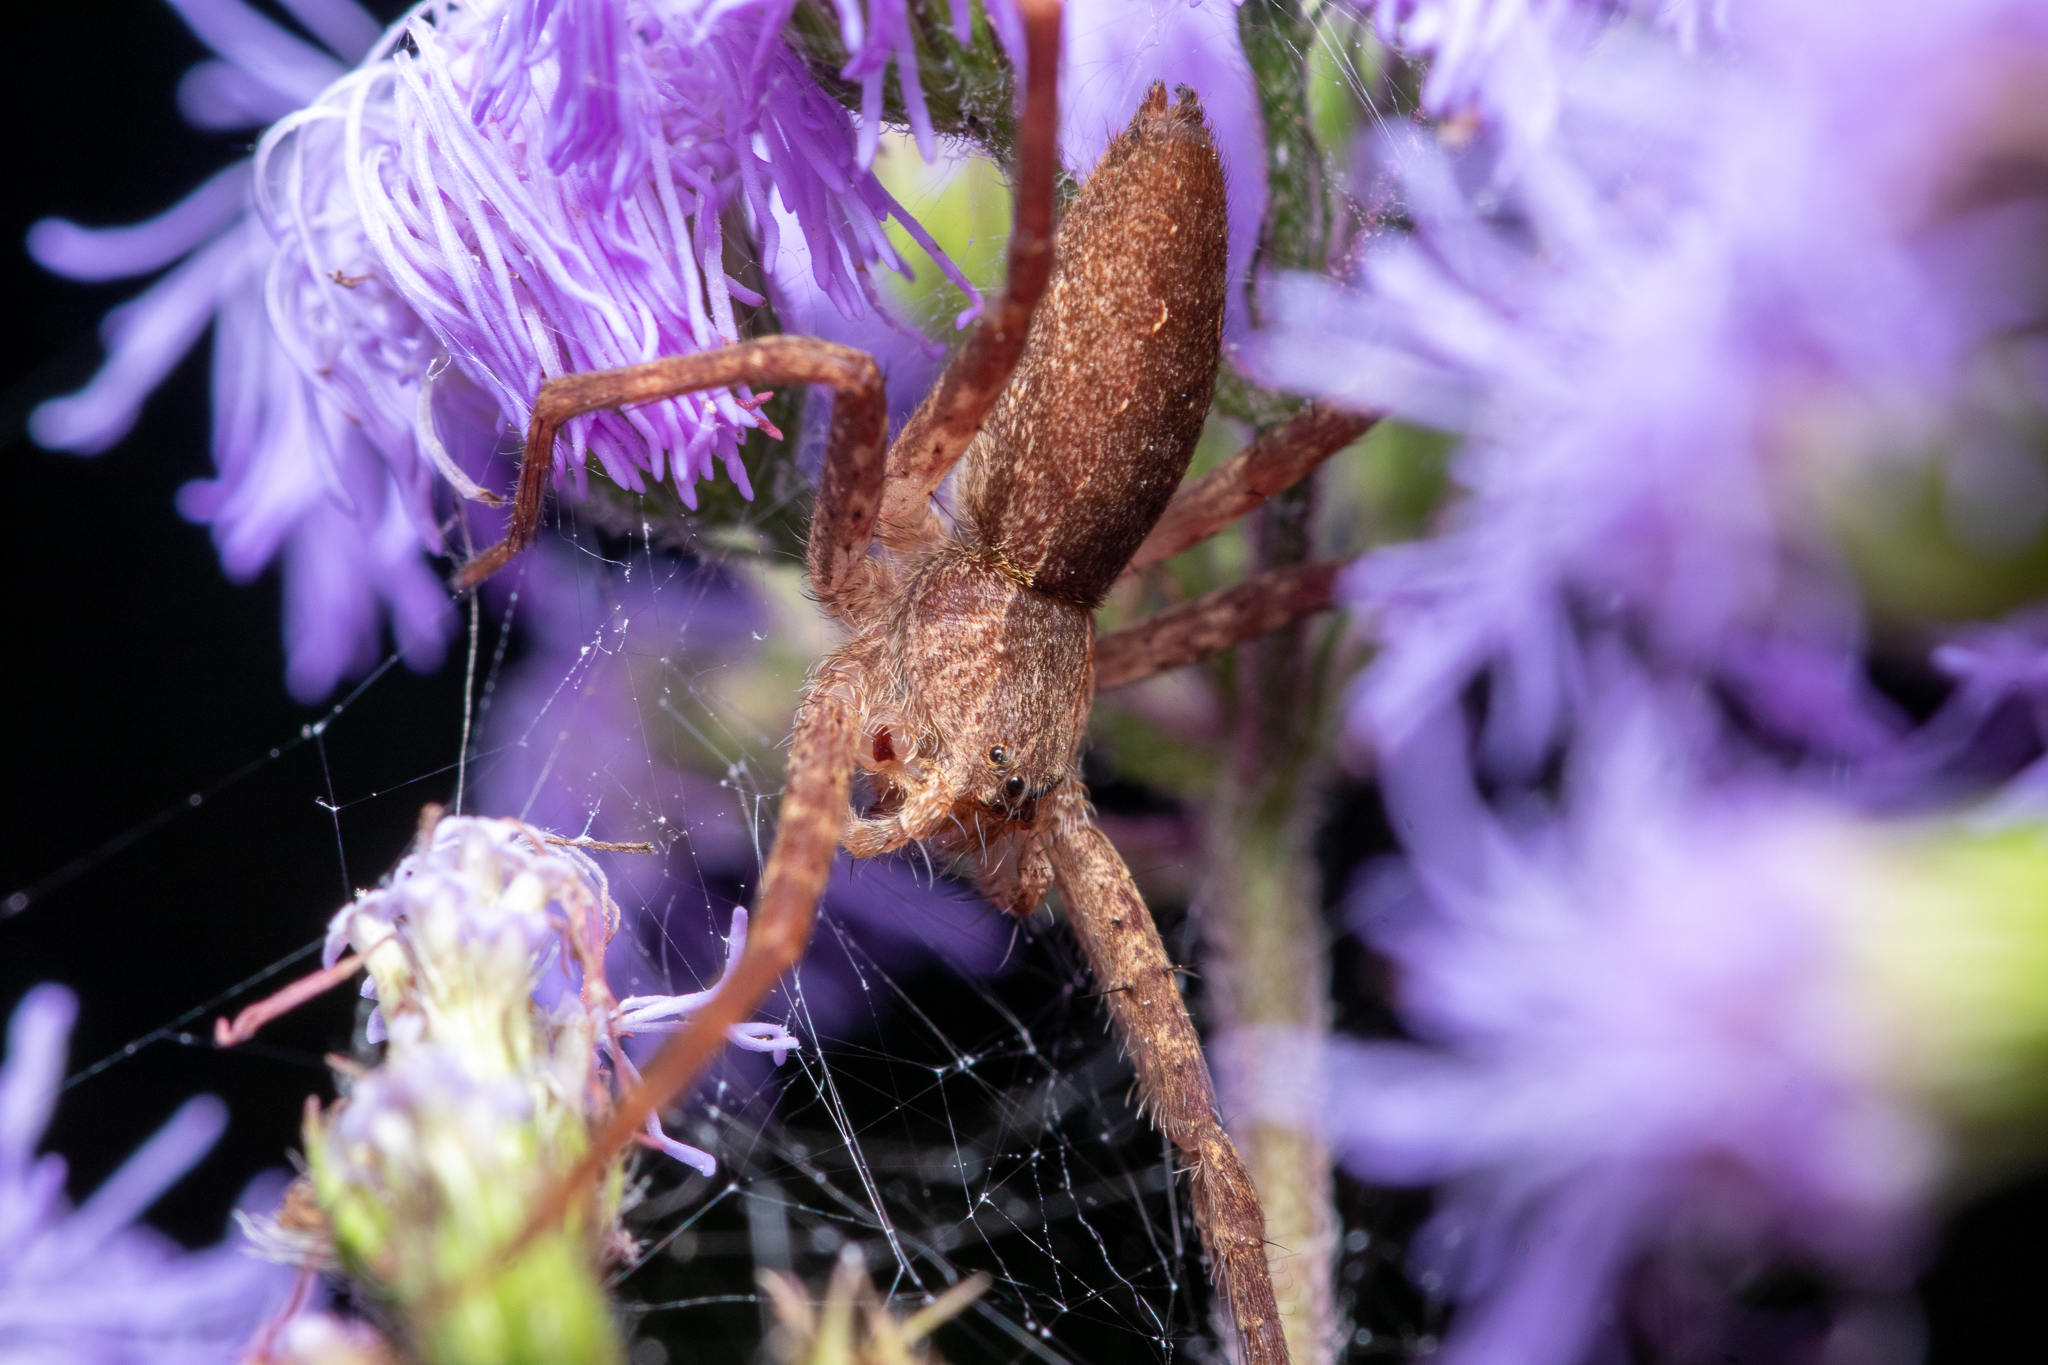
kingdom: Animalia
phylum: Arthropoda
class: Arachnida
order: Araneae
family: Pisauridae
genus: Pisaurina
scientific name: Pisaurina mira
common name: American nursery web spider
